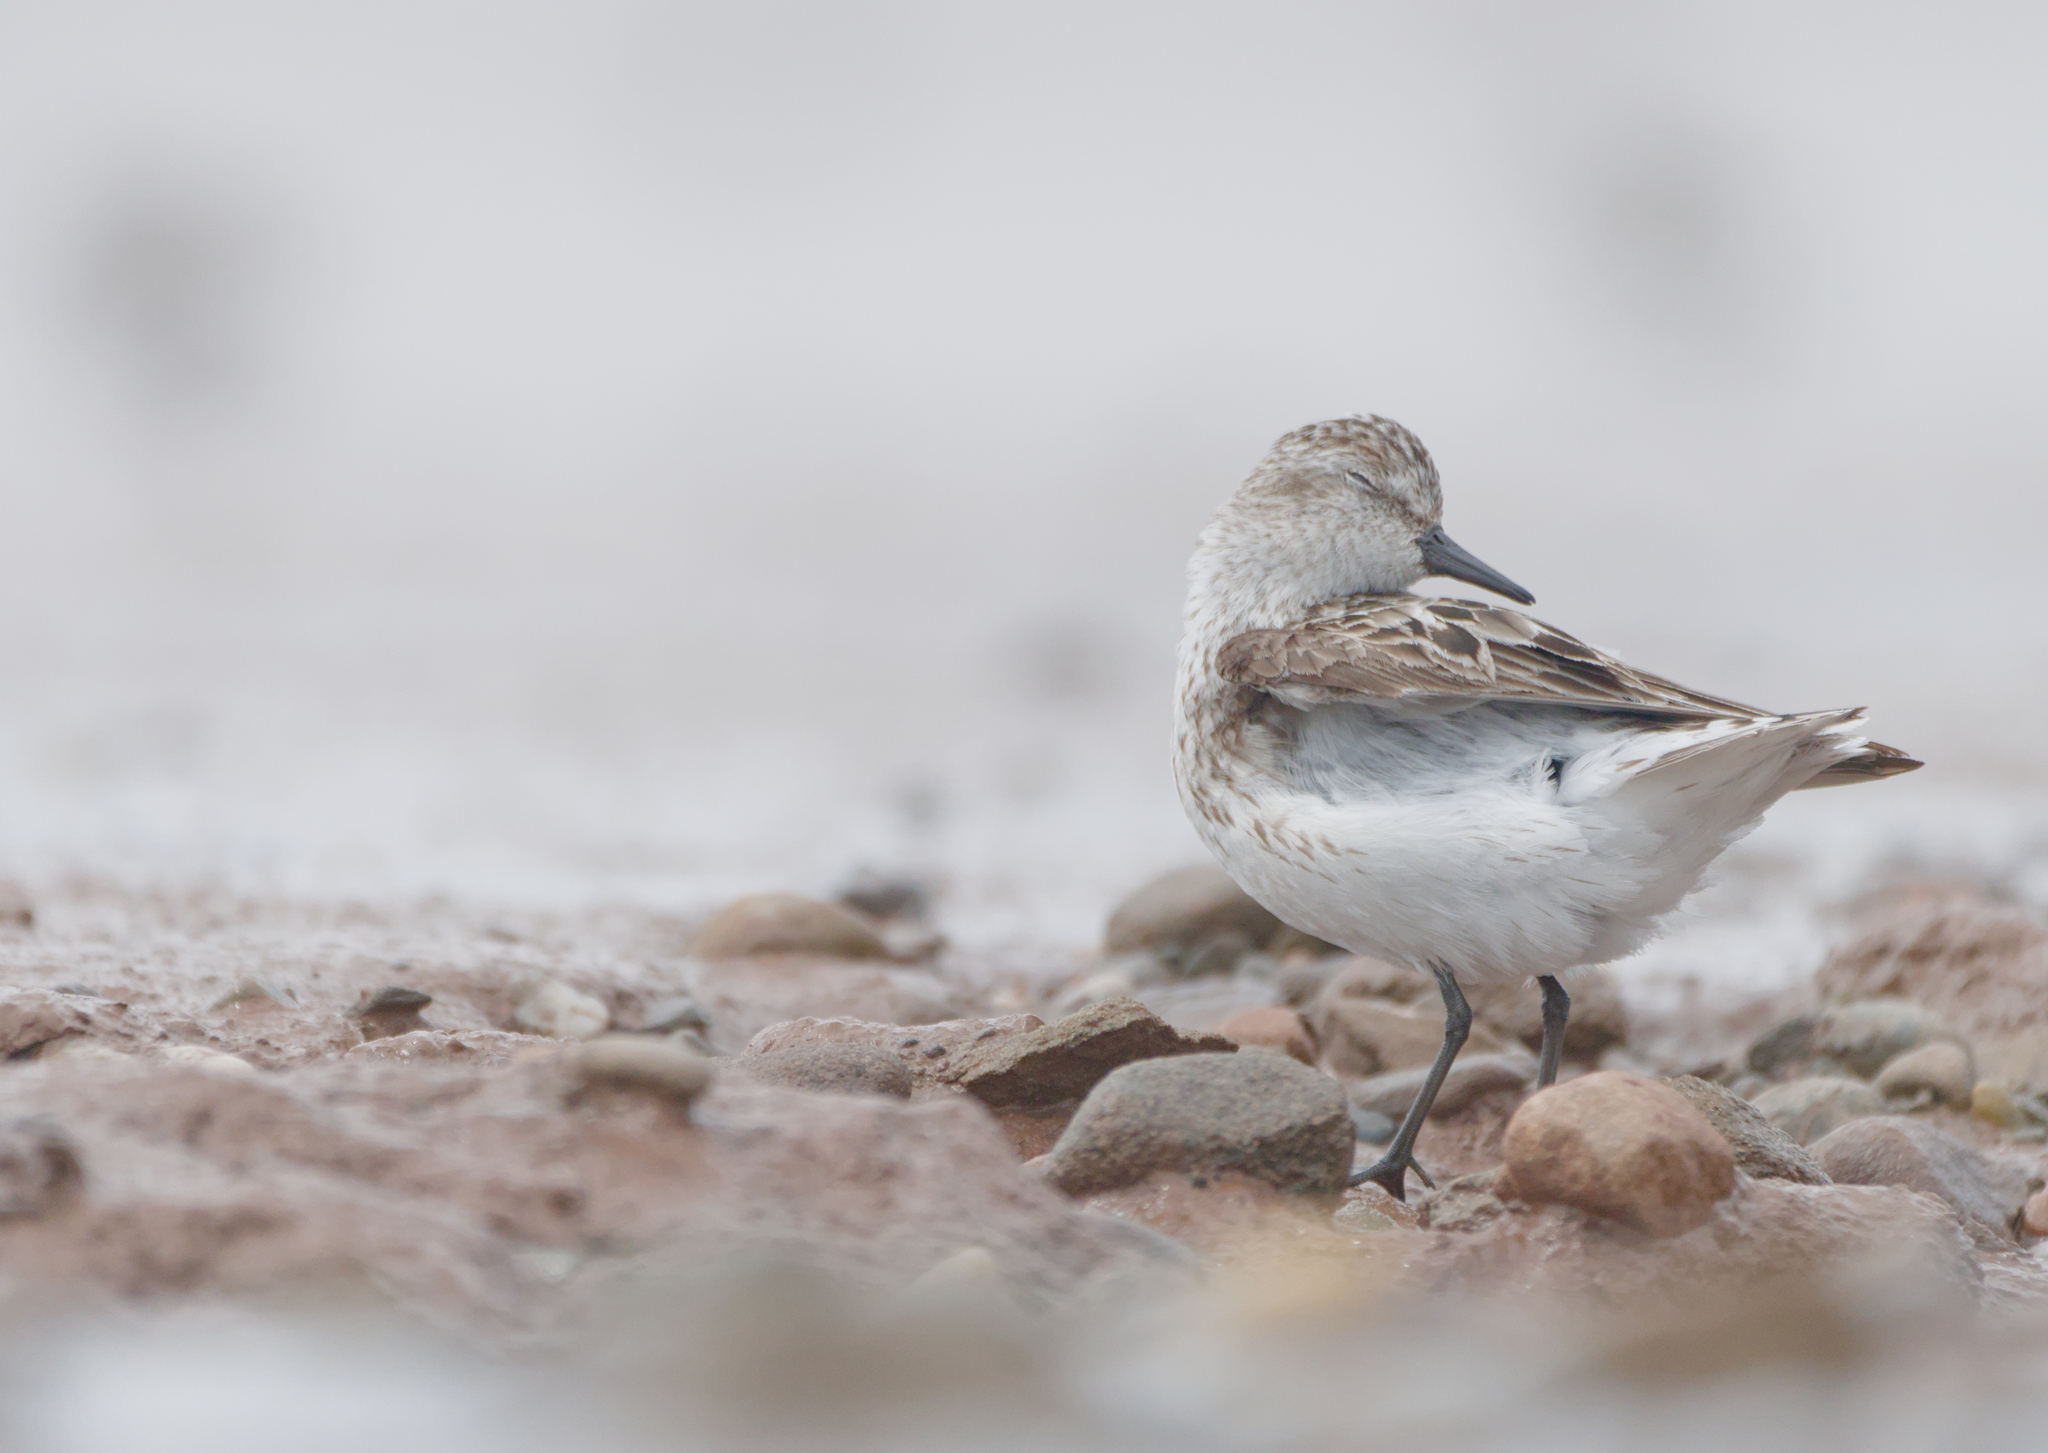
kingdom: Animalia
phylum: Chordata
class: Aves
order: Charadriiformes
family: Scolopacidae
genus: Calidris
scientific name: Calidris pusilla
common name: Semipalmated sandpiper
